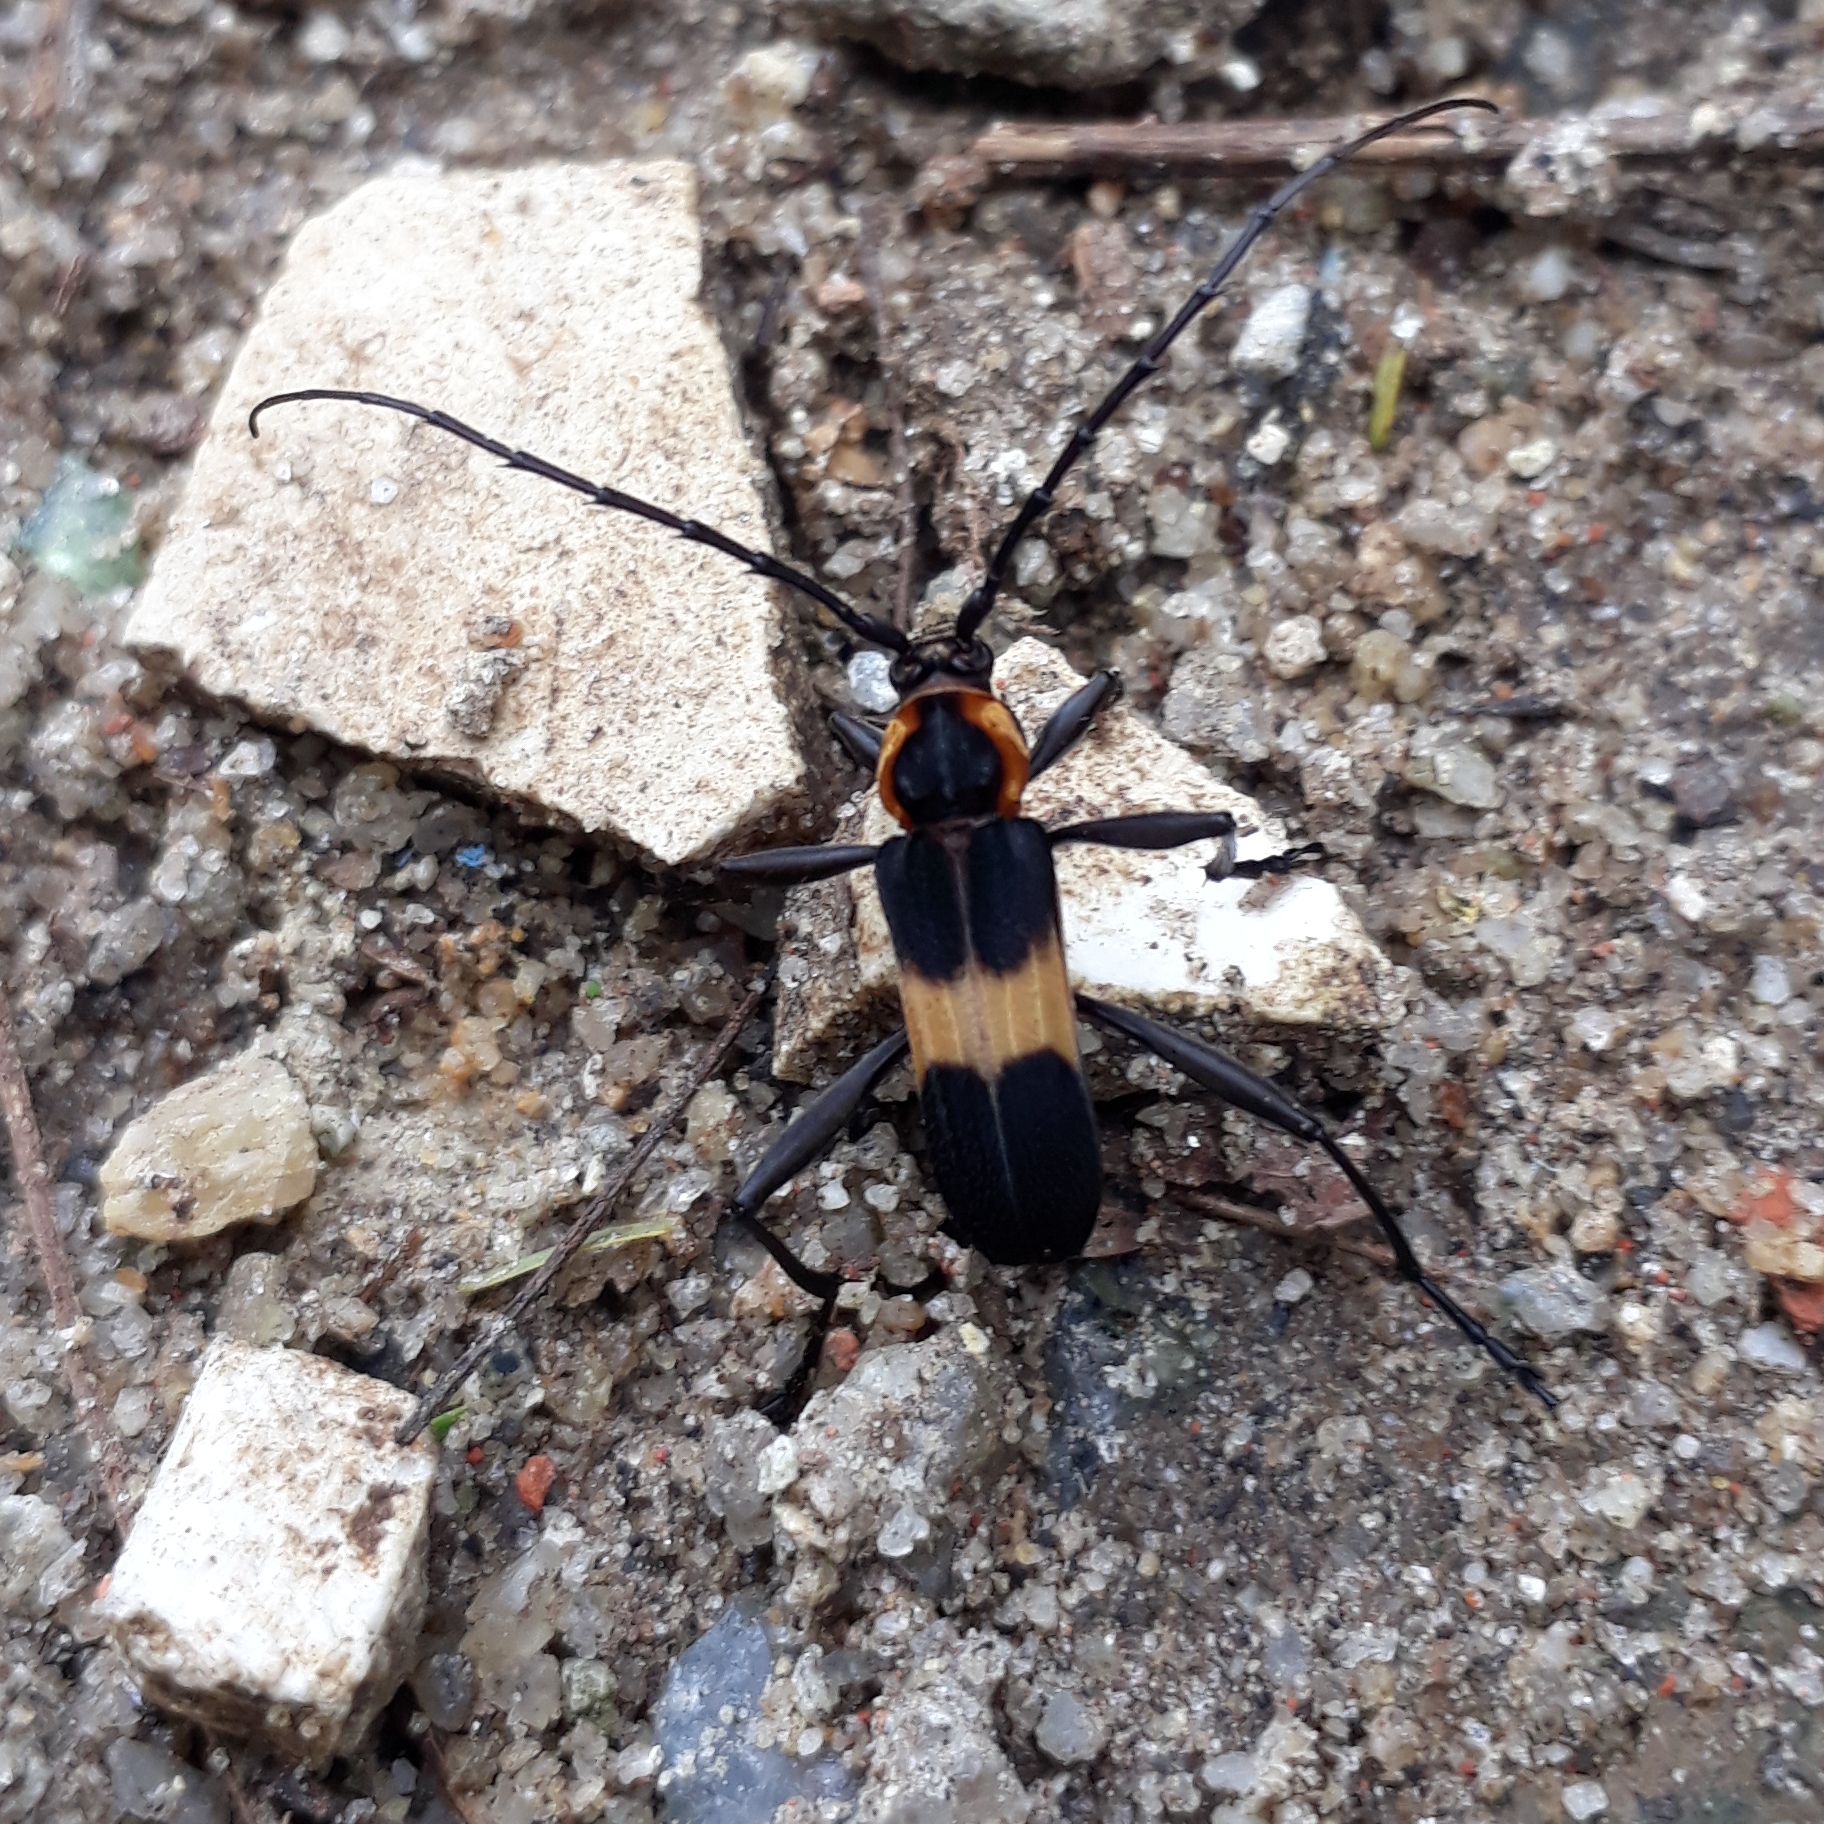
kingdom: Animalia
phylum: Arthropoda
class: Insecta
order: Coleoptera
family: Cerambycidae
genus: Mallosoma
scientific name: Mallosoma zonatum
